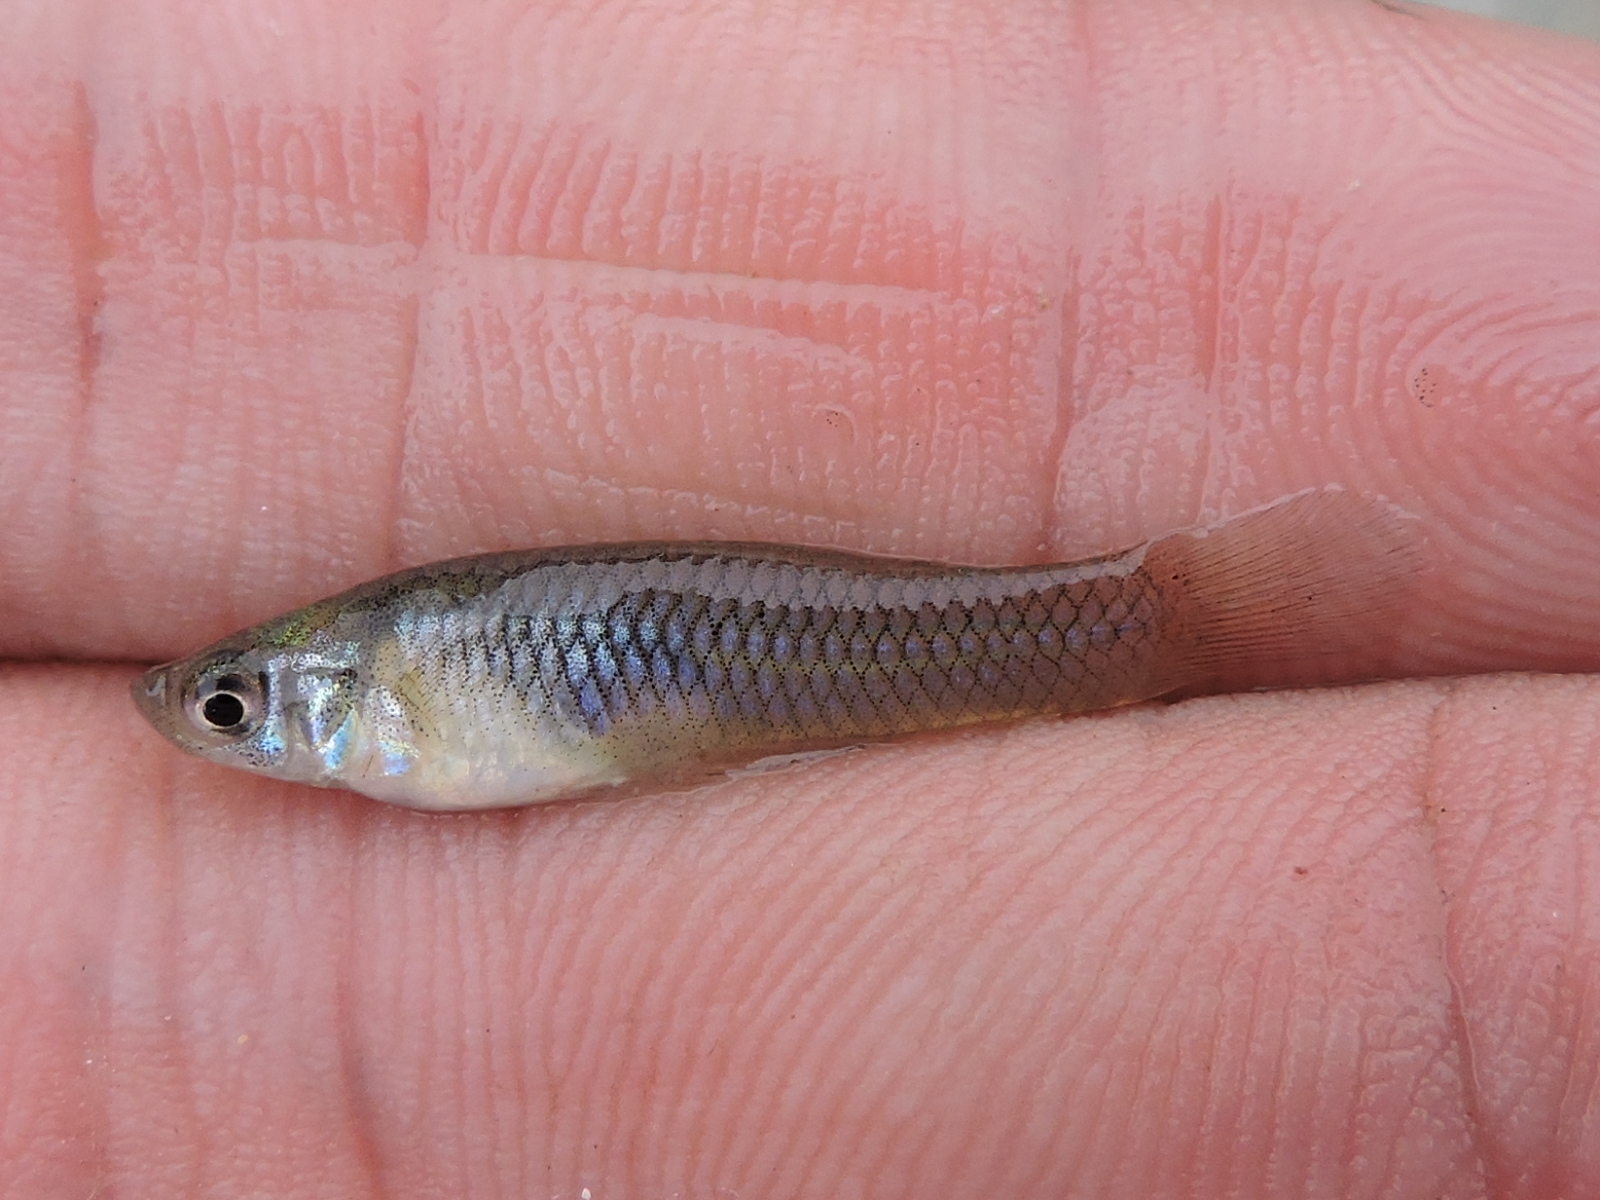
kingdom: Animalia
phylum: Chordata
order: Cyprinodontiformes
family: Poeciliidae
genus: Gambusia
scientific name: Gambusia affinis
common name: Mosquitofish
